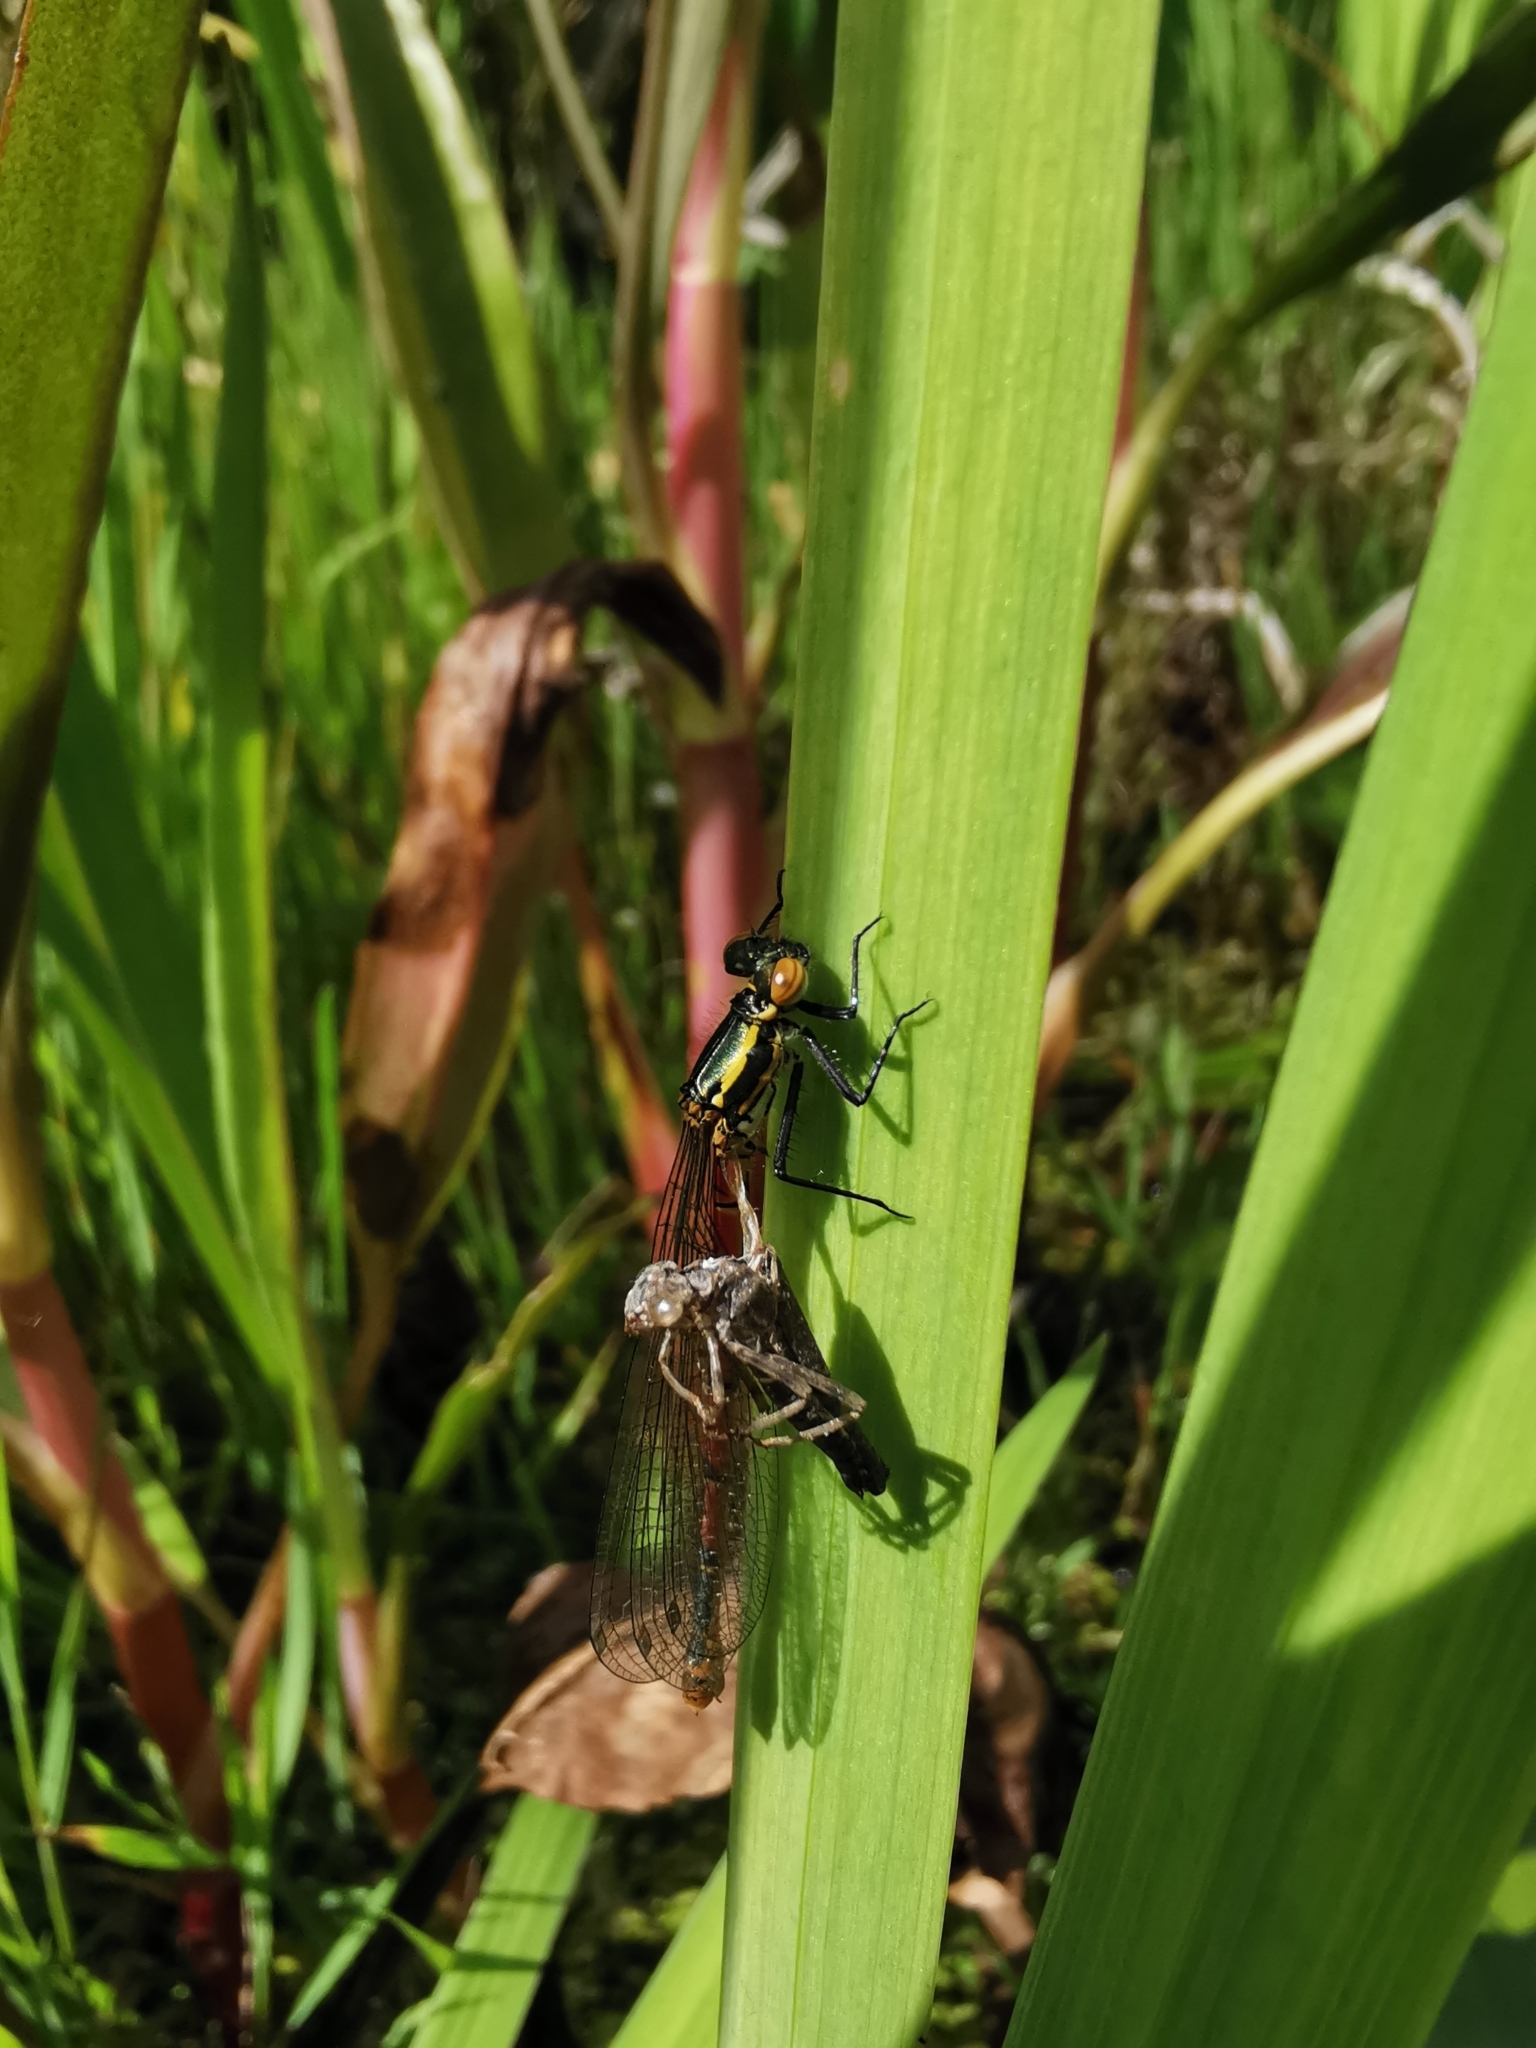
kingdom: Animalia
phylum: Arthropoda
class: Insecta
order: Odonata
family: Coenagrionidae
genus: Pyrrhosoma
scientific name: Pyrrhosoma nymphula
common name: Large red damsel
